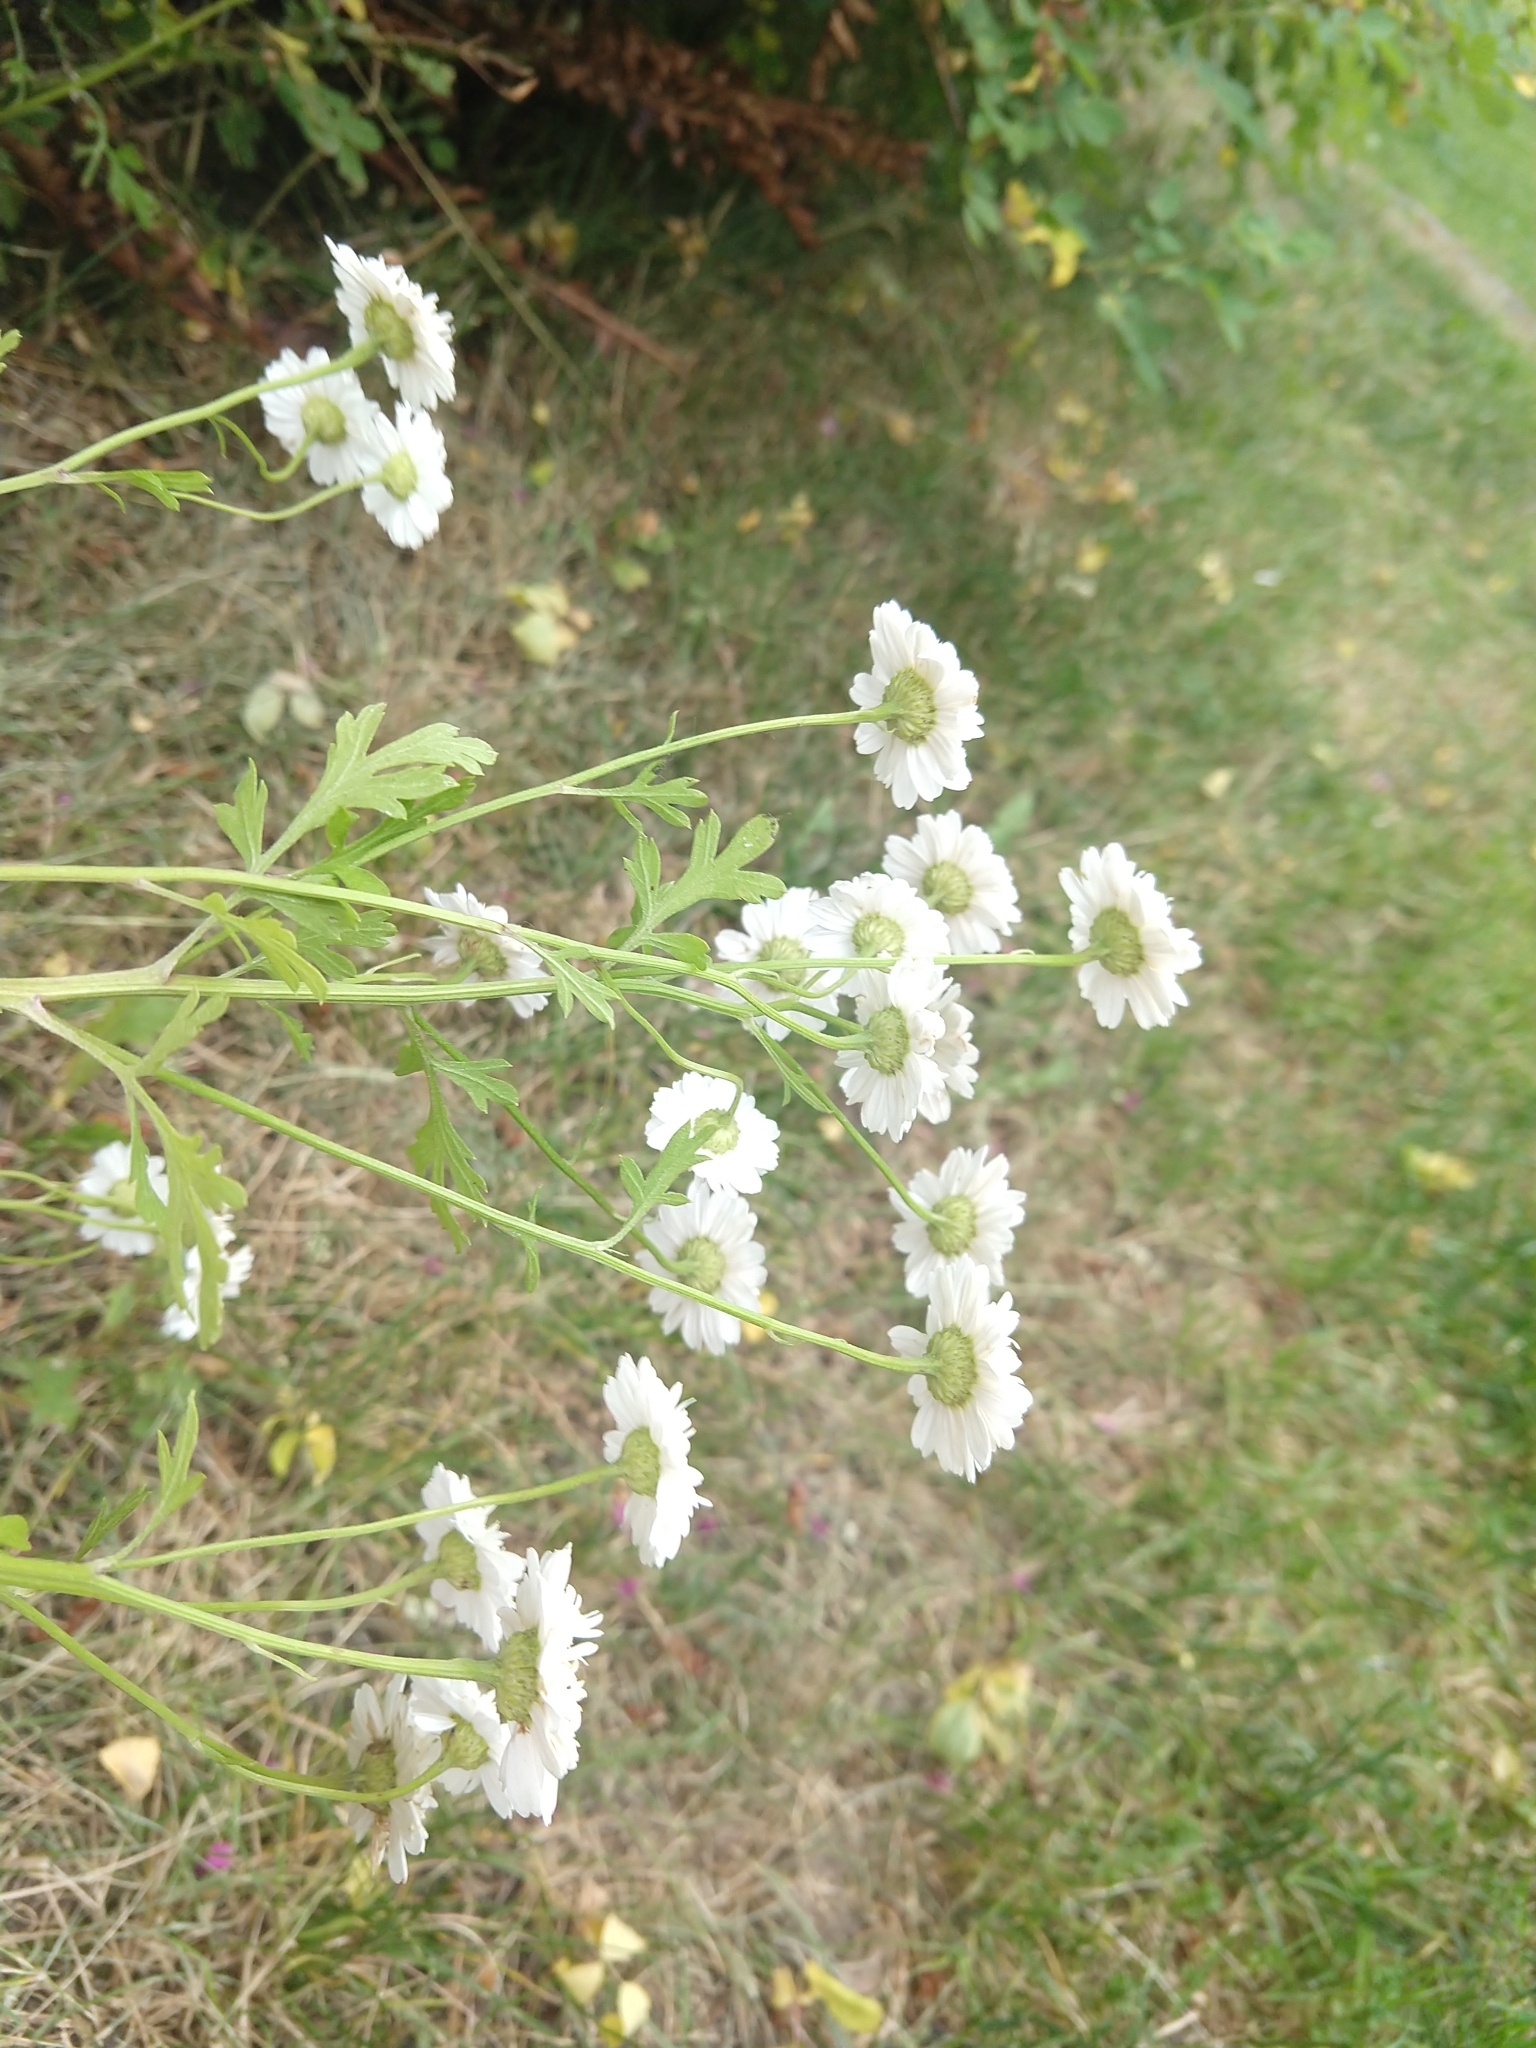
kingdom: Plantae
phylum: Tracheophyta
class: Magnoliopsida
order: Asterales
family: Asteraceae
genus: Tanacetum
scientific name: Tanacetum parthenium
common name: Feverfew
